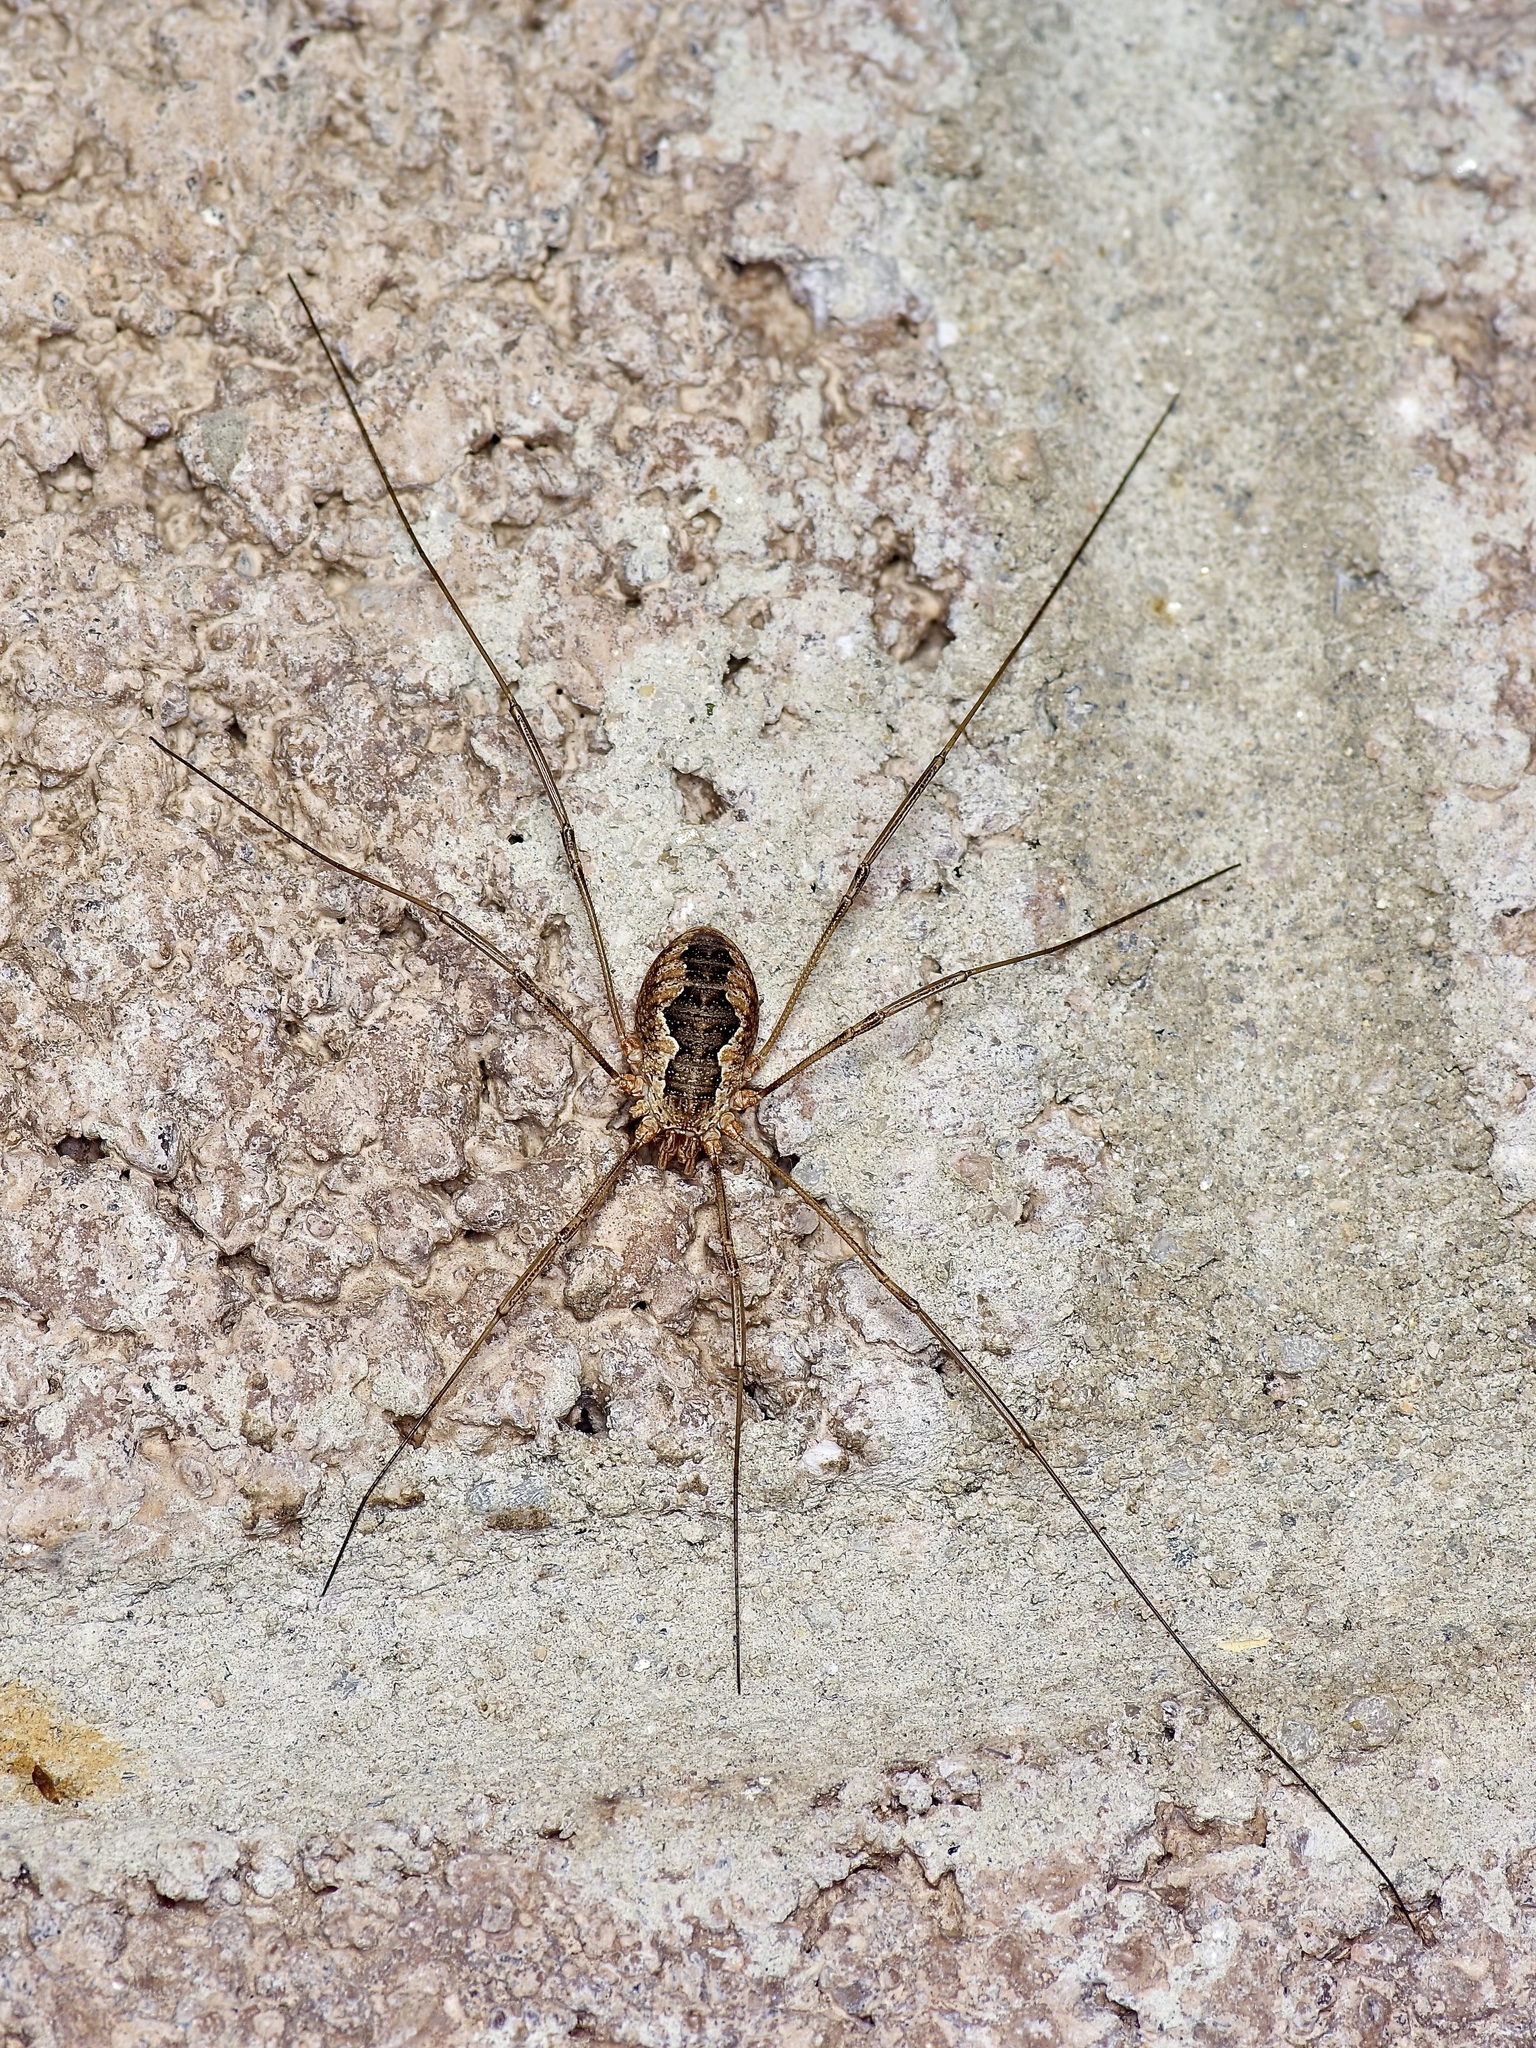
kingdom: Animalia
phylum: Arthropoda
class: Arachnida
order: Opiliones
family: Phalangiidae
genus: Phalangium
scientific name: Phalangium opilio
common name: Daddy longleg
